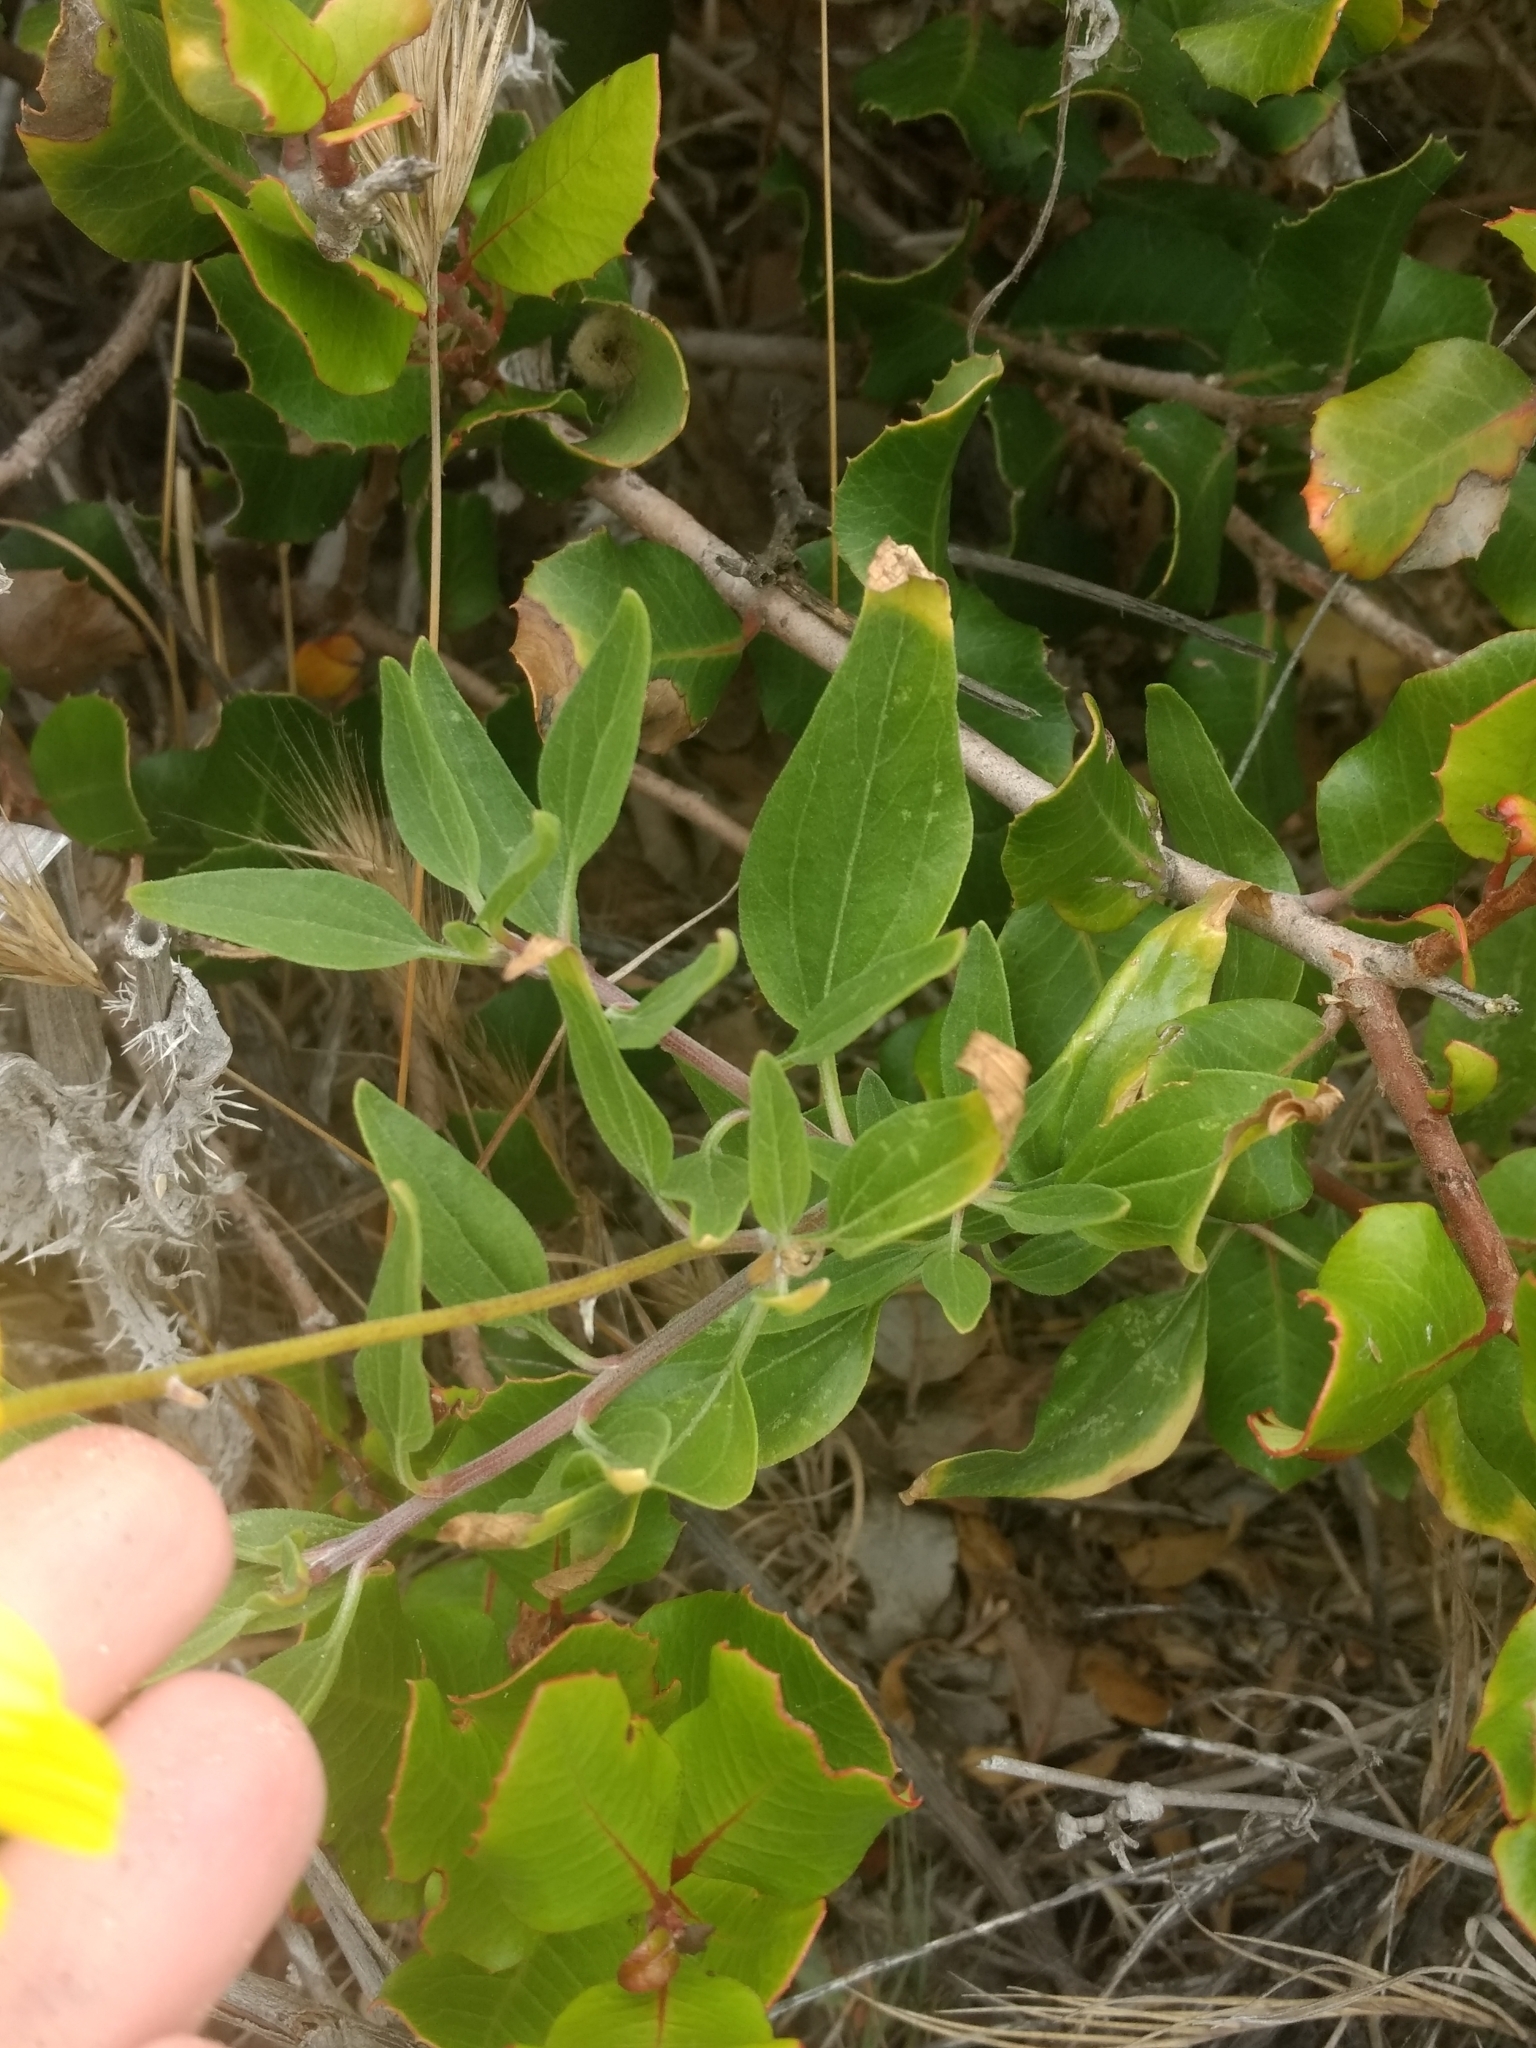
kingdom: Plantae
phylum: Tracheophyta
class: Magnoliopsida
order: Asterales
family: Asteraceae
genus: Encelia
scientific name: Encelia californica
